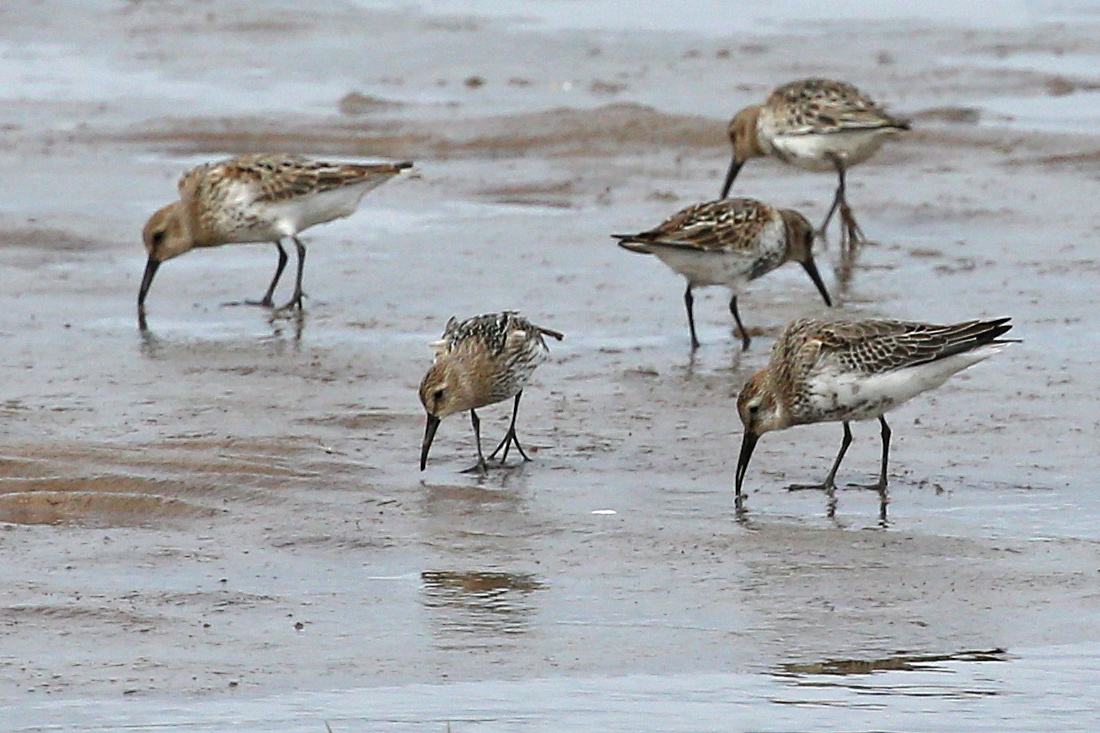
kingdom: Animalia
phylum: Chordata
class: Aves
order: Charadriiformes
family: Scolopacidae
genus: Calidris
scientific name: Calidris alpina
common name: Dunlin
